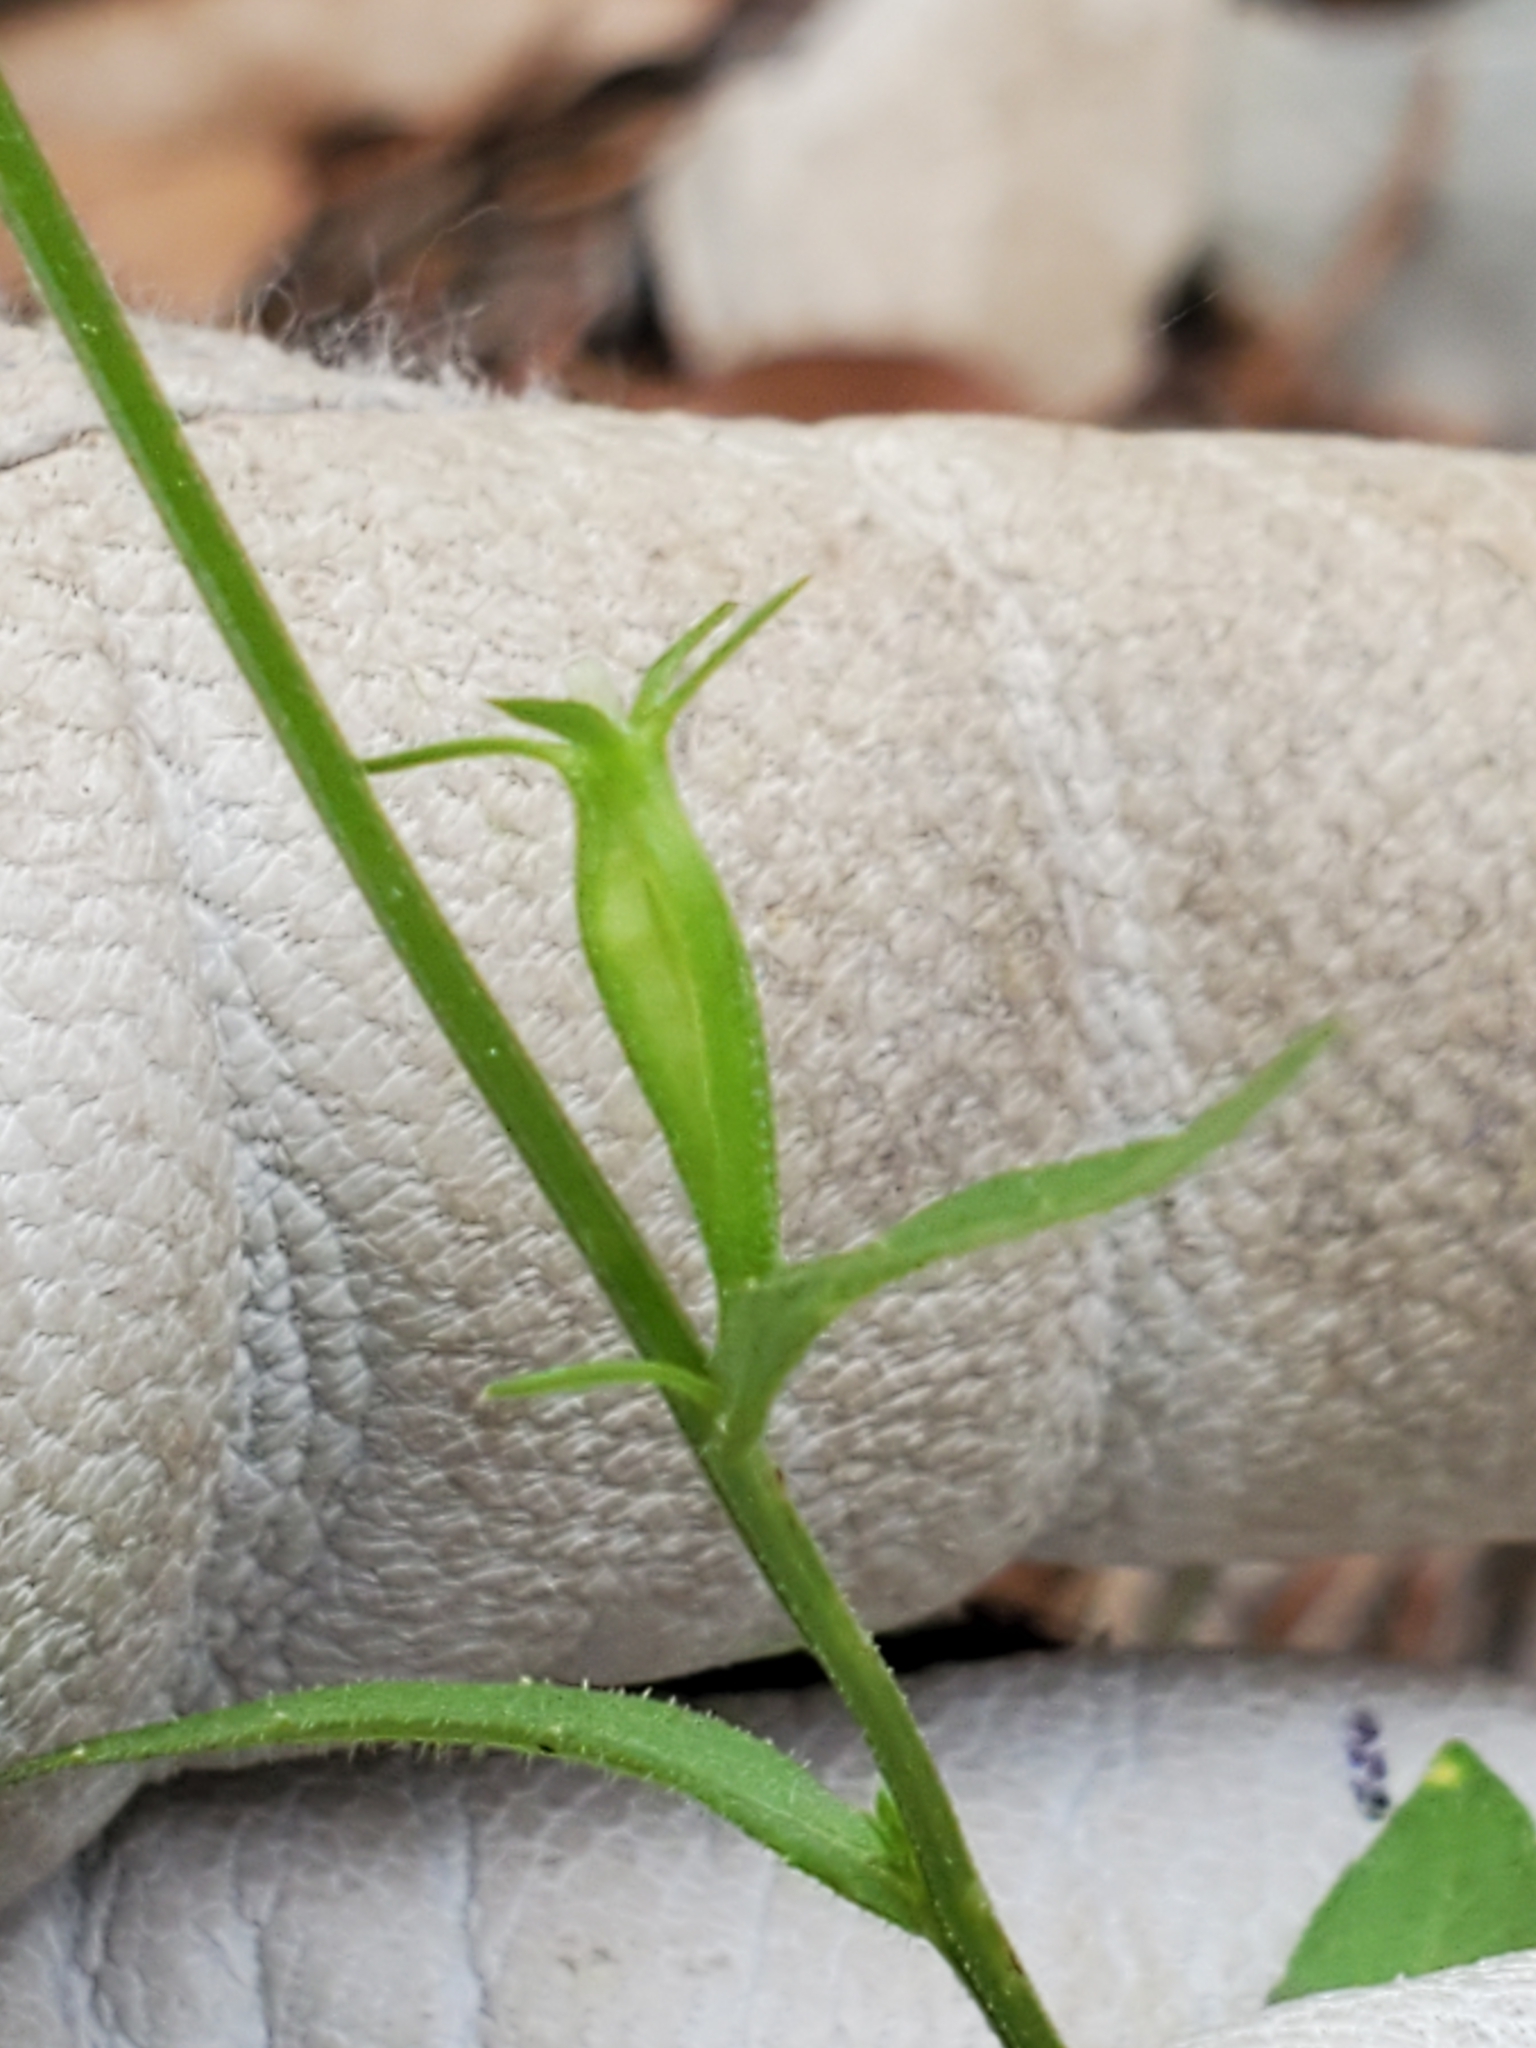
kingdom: Plantae
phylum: Tracheophyta
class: Magnoliopsida
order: Asterales
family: Campanulaceae
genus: Triodanis
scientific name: Triodanis coloradoensis
